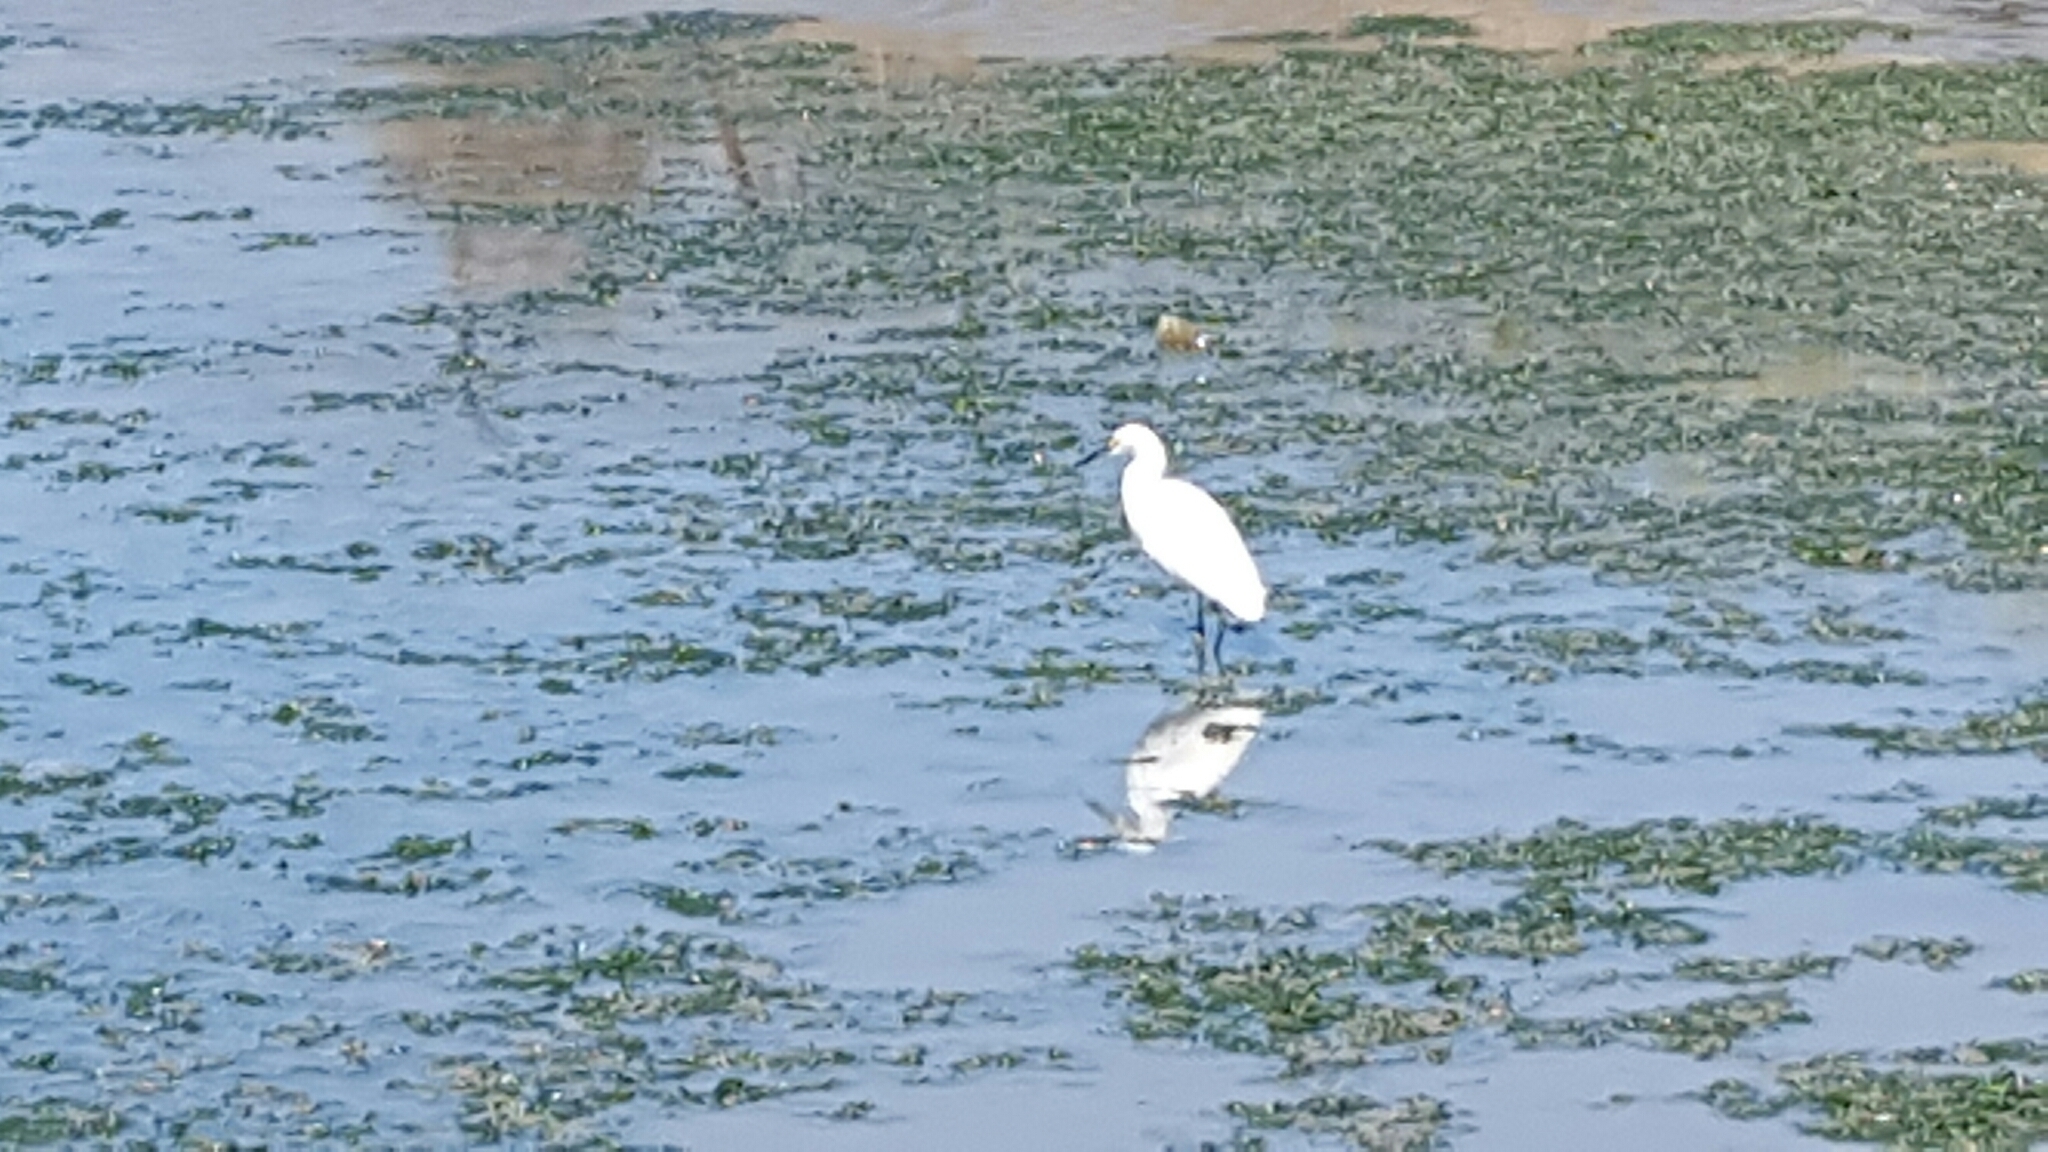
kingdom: Animalia
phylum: Chordata
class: Aves
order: Pelecaniformes
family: Ardeidae
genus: Egretta
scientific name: Egretta thula
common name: Snowy egret
